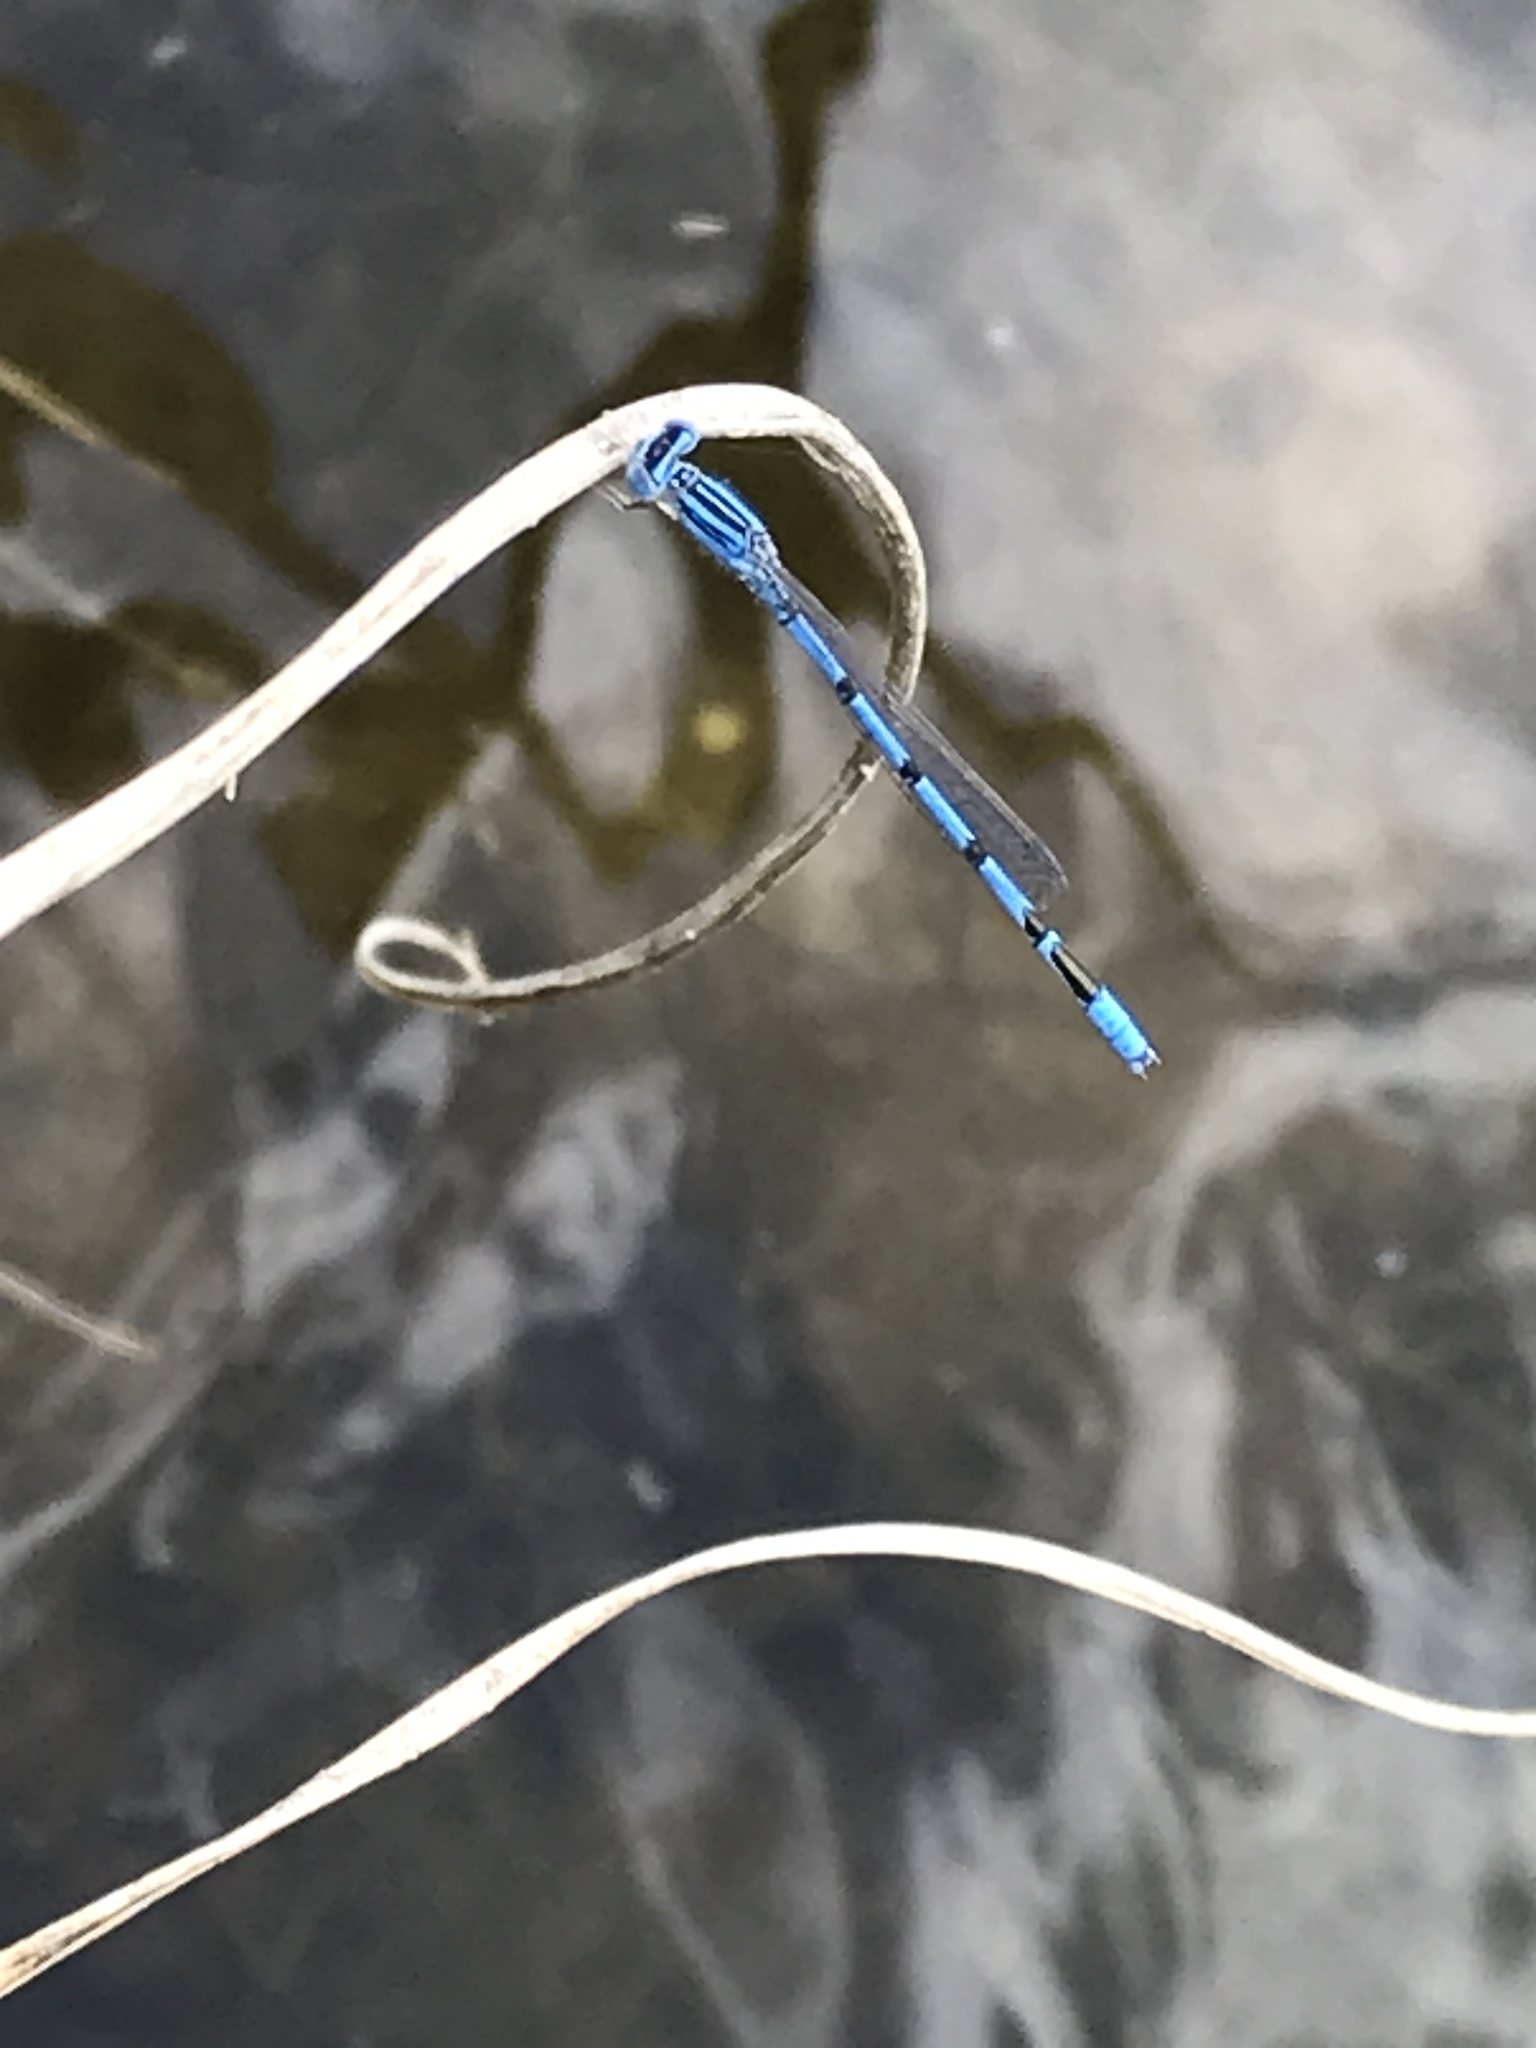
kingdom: Animalia
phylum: Arthropoda
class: Insecta
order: Odonata
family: Coenagrionidae
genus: Enallagma
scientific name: Enallagma basidens
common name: Double-striped bluet
